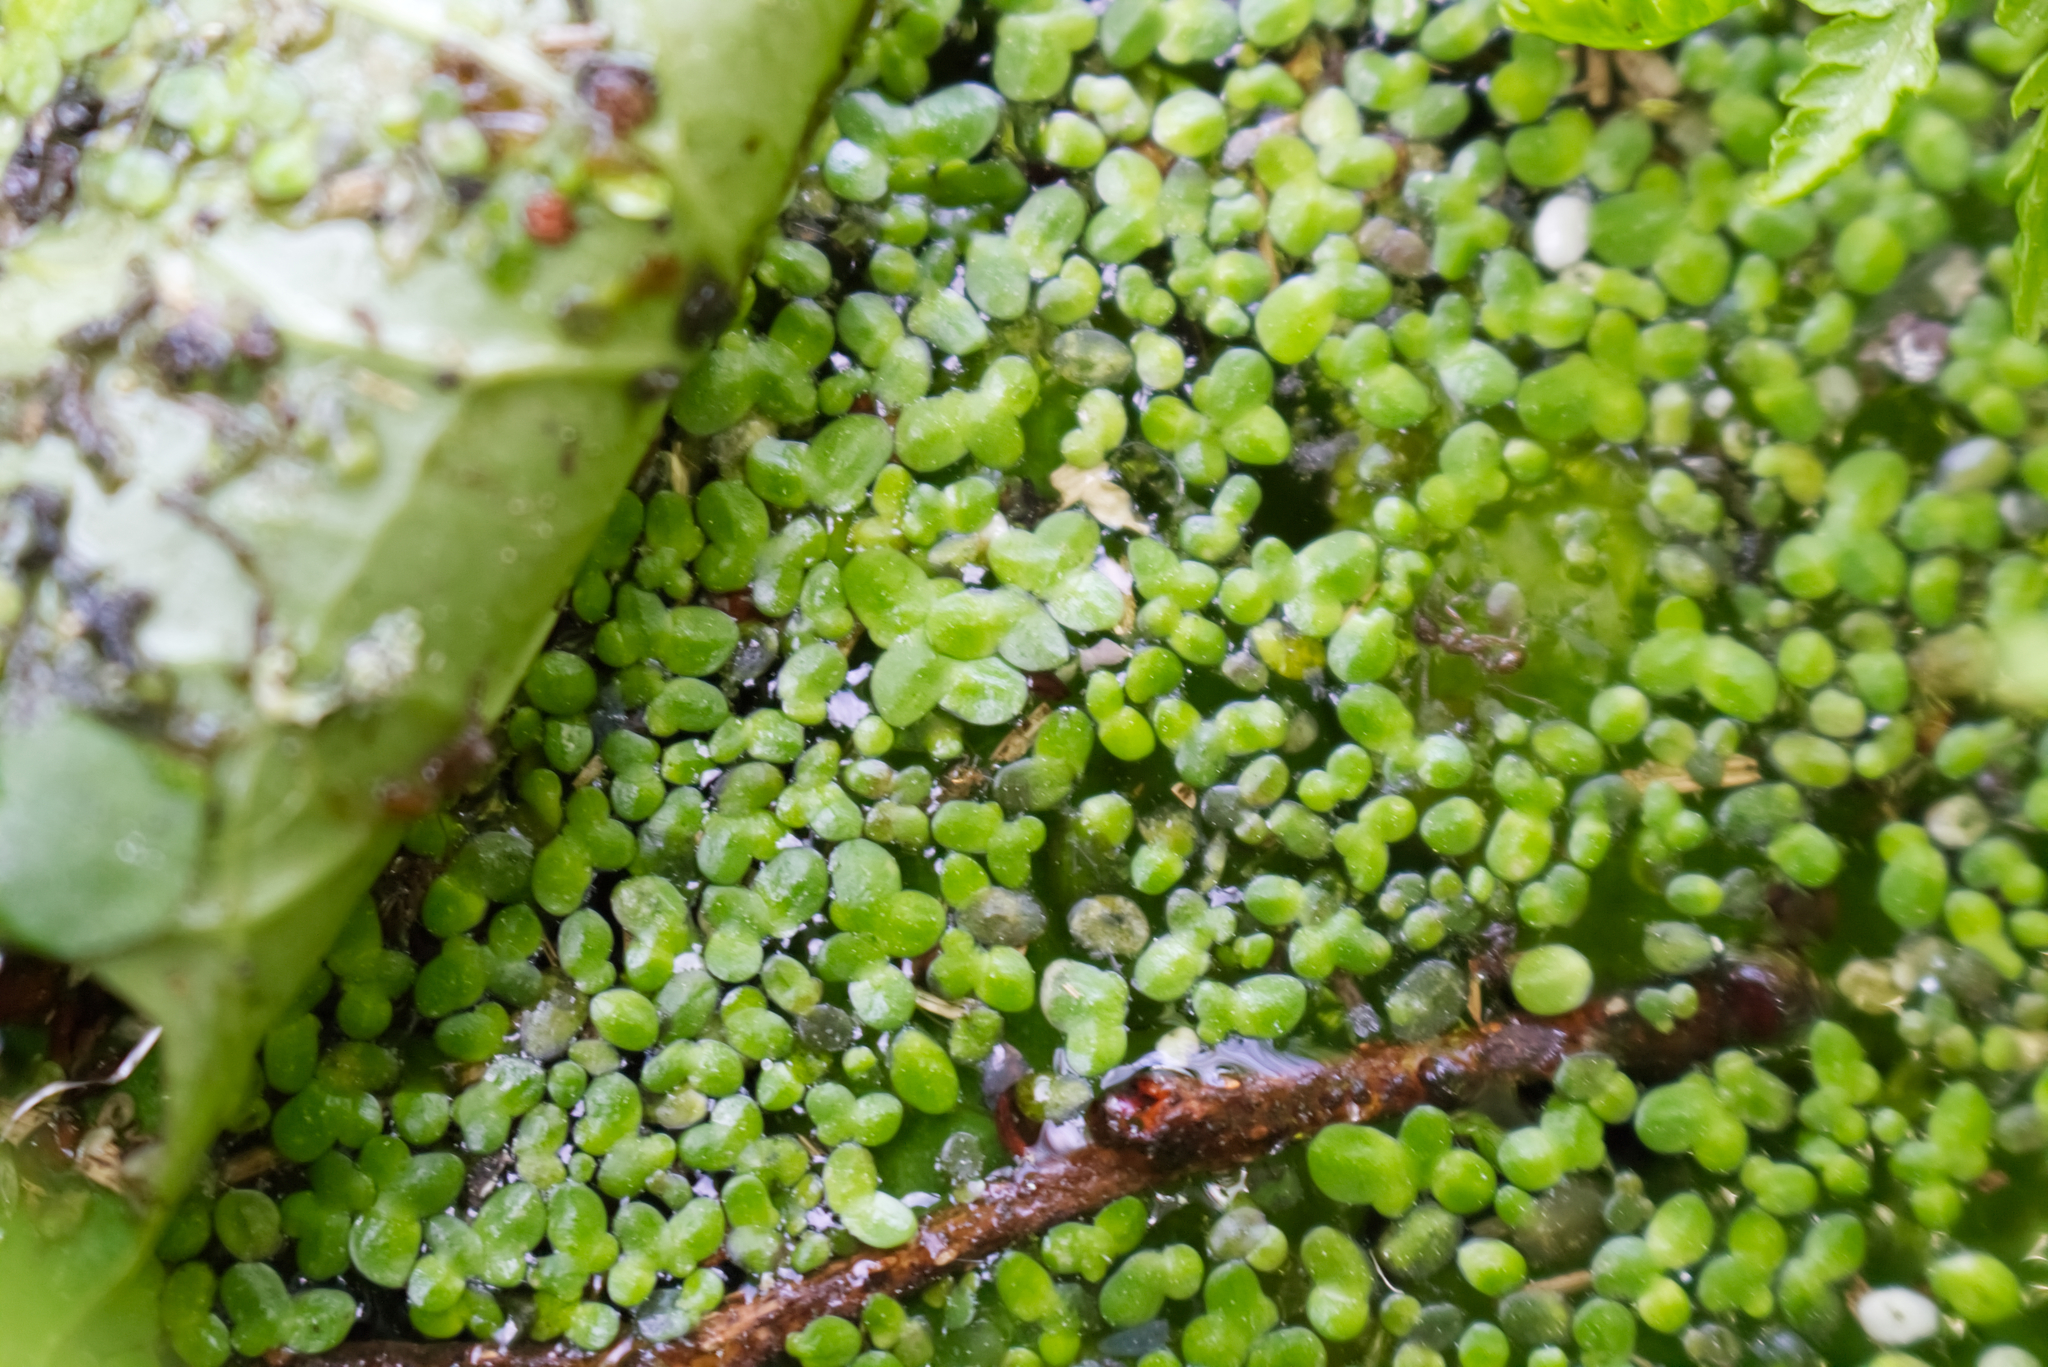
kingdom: Plantae
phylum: Tracheophyta
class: Liliopsida
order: Alismatales
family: Araceae
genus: Lemna
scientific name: Lemna minor
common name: Common duckweed
